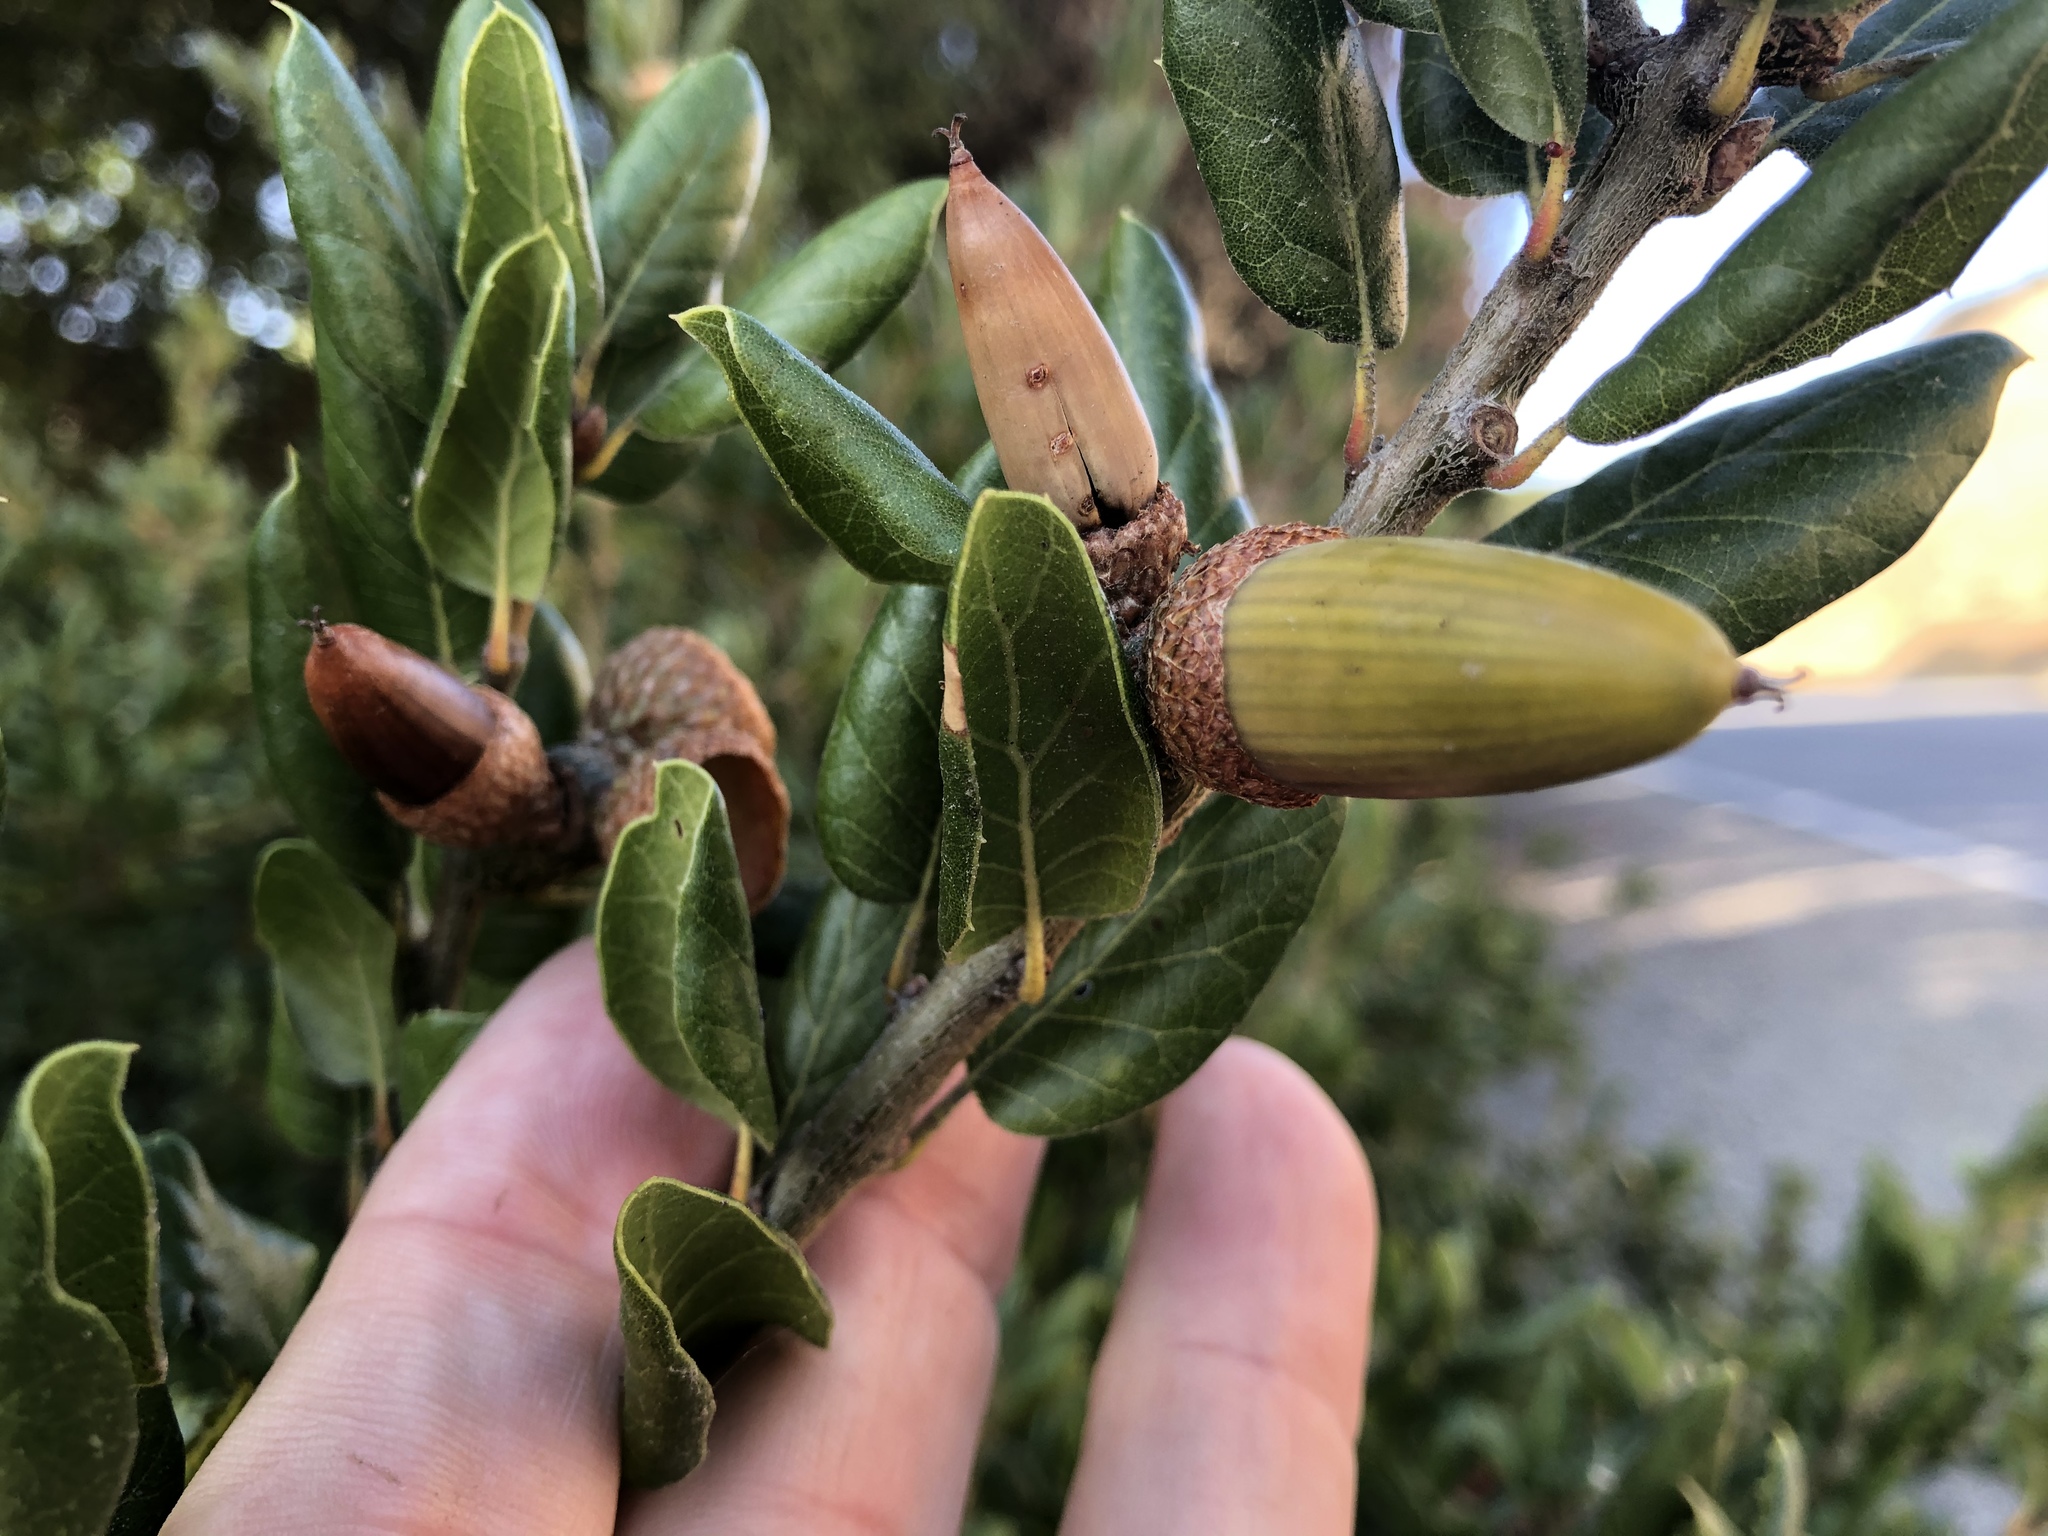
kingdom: Plantae
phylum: Tracheophyta
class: Magnoliopsida
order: Fagales
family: Fagaceae
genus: Quercus
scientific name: Quercus agrifolia
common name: California live oak
